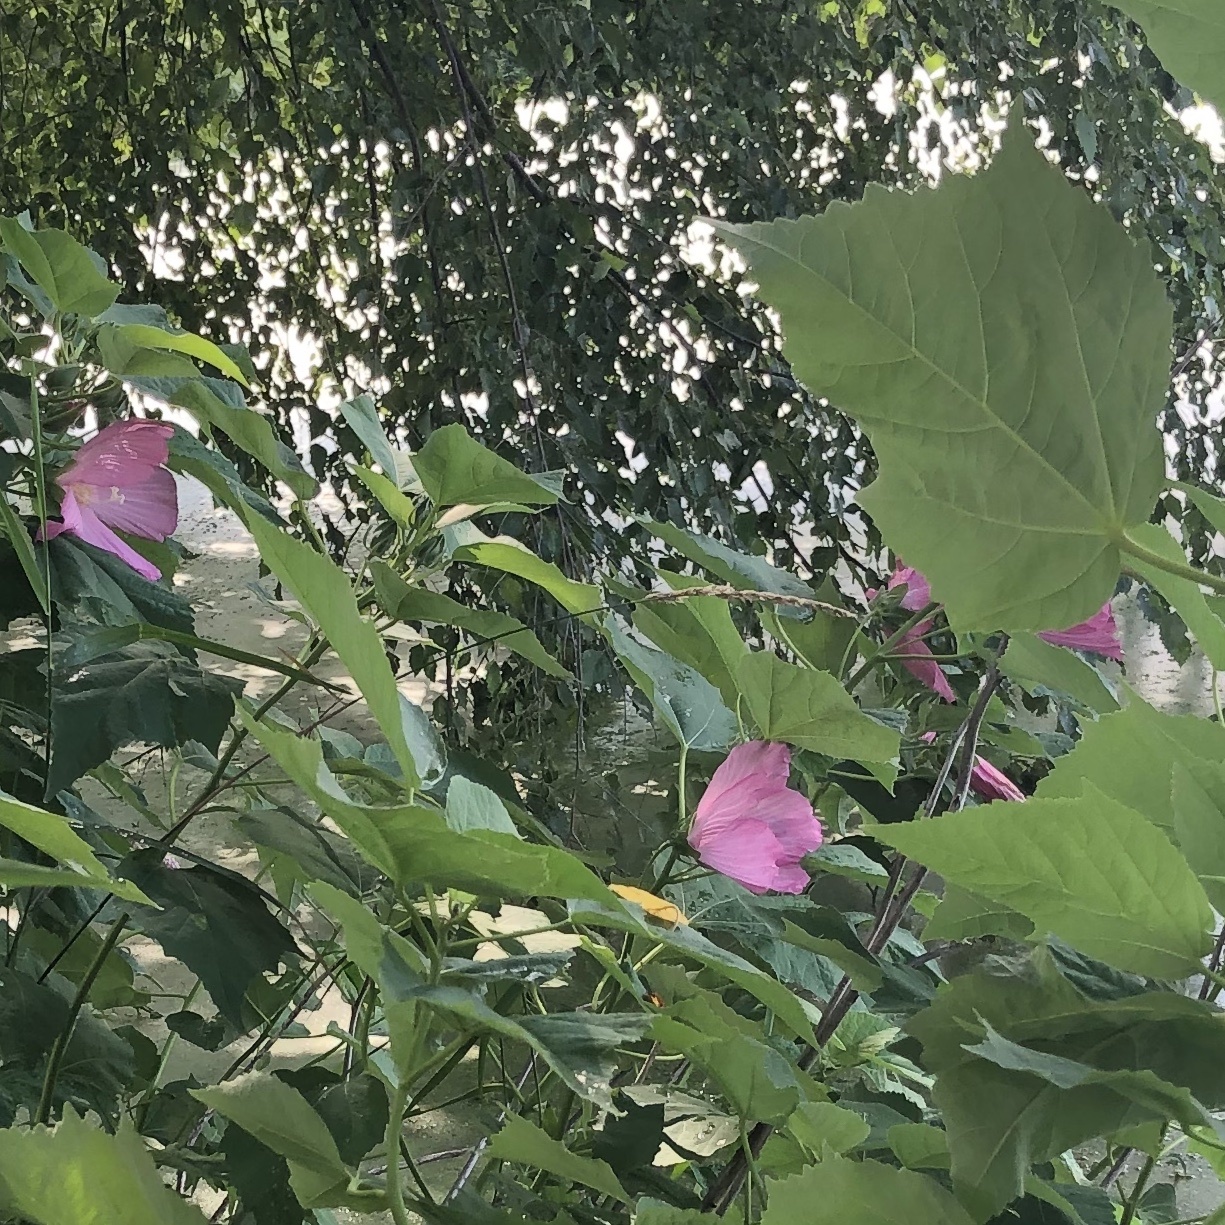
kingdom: Plantae
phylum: Tracheophyta
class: Magnoliopsida
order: Malvales
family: Malvaceae
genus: Hibiscus
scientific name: Hibiscus moscheutos
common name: Common rose-mallow
